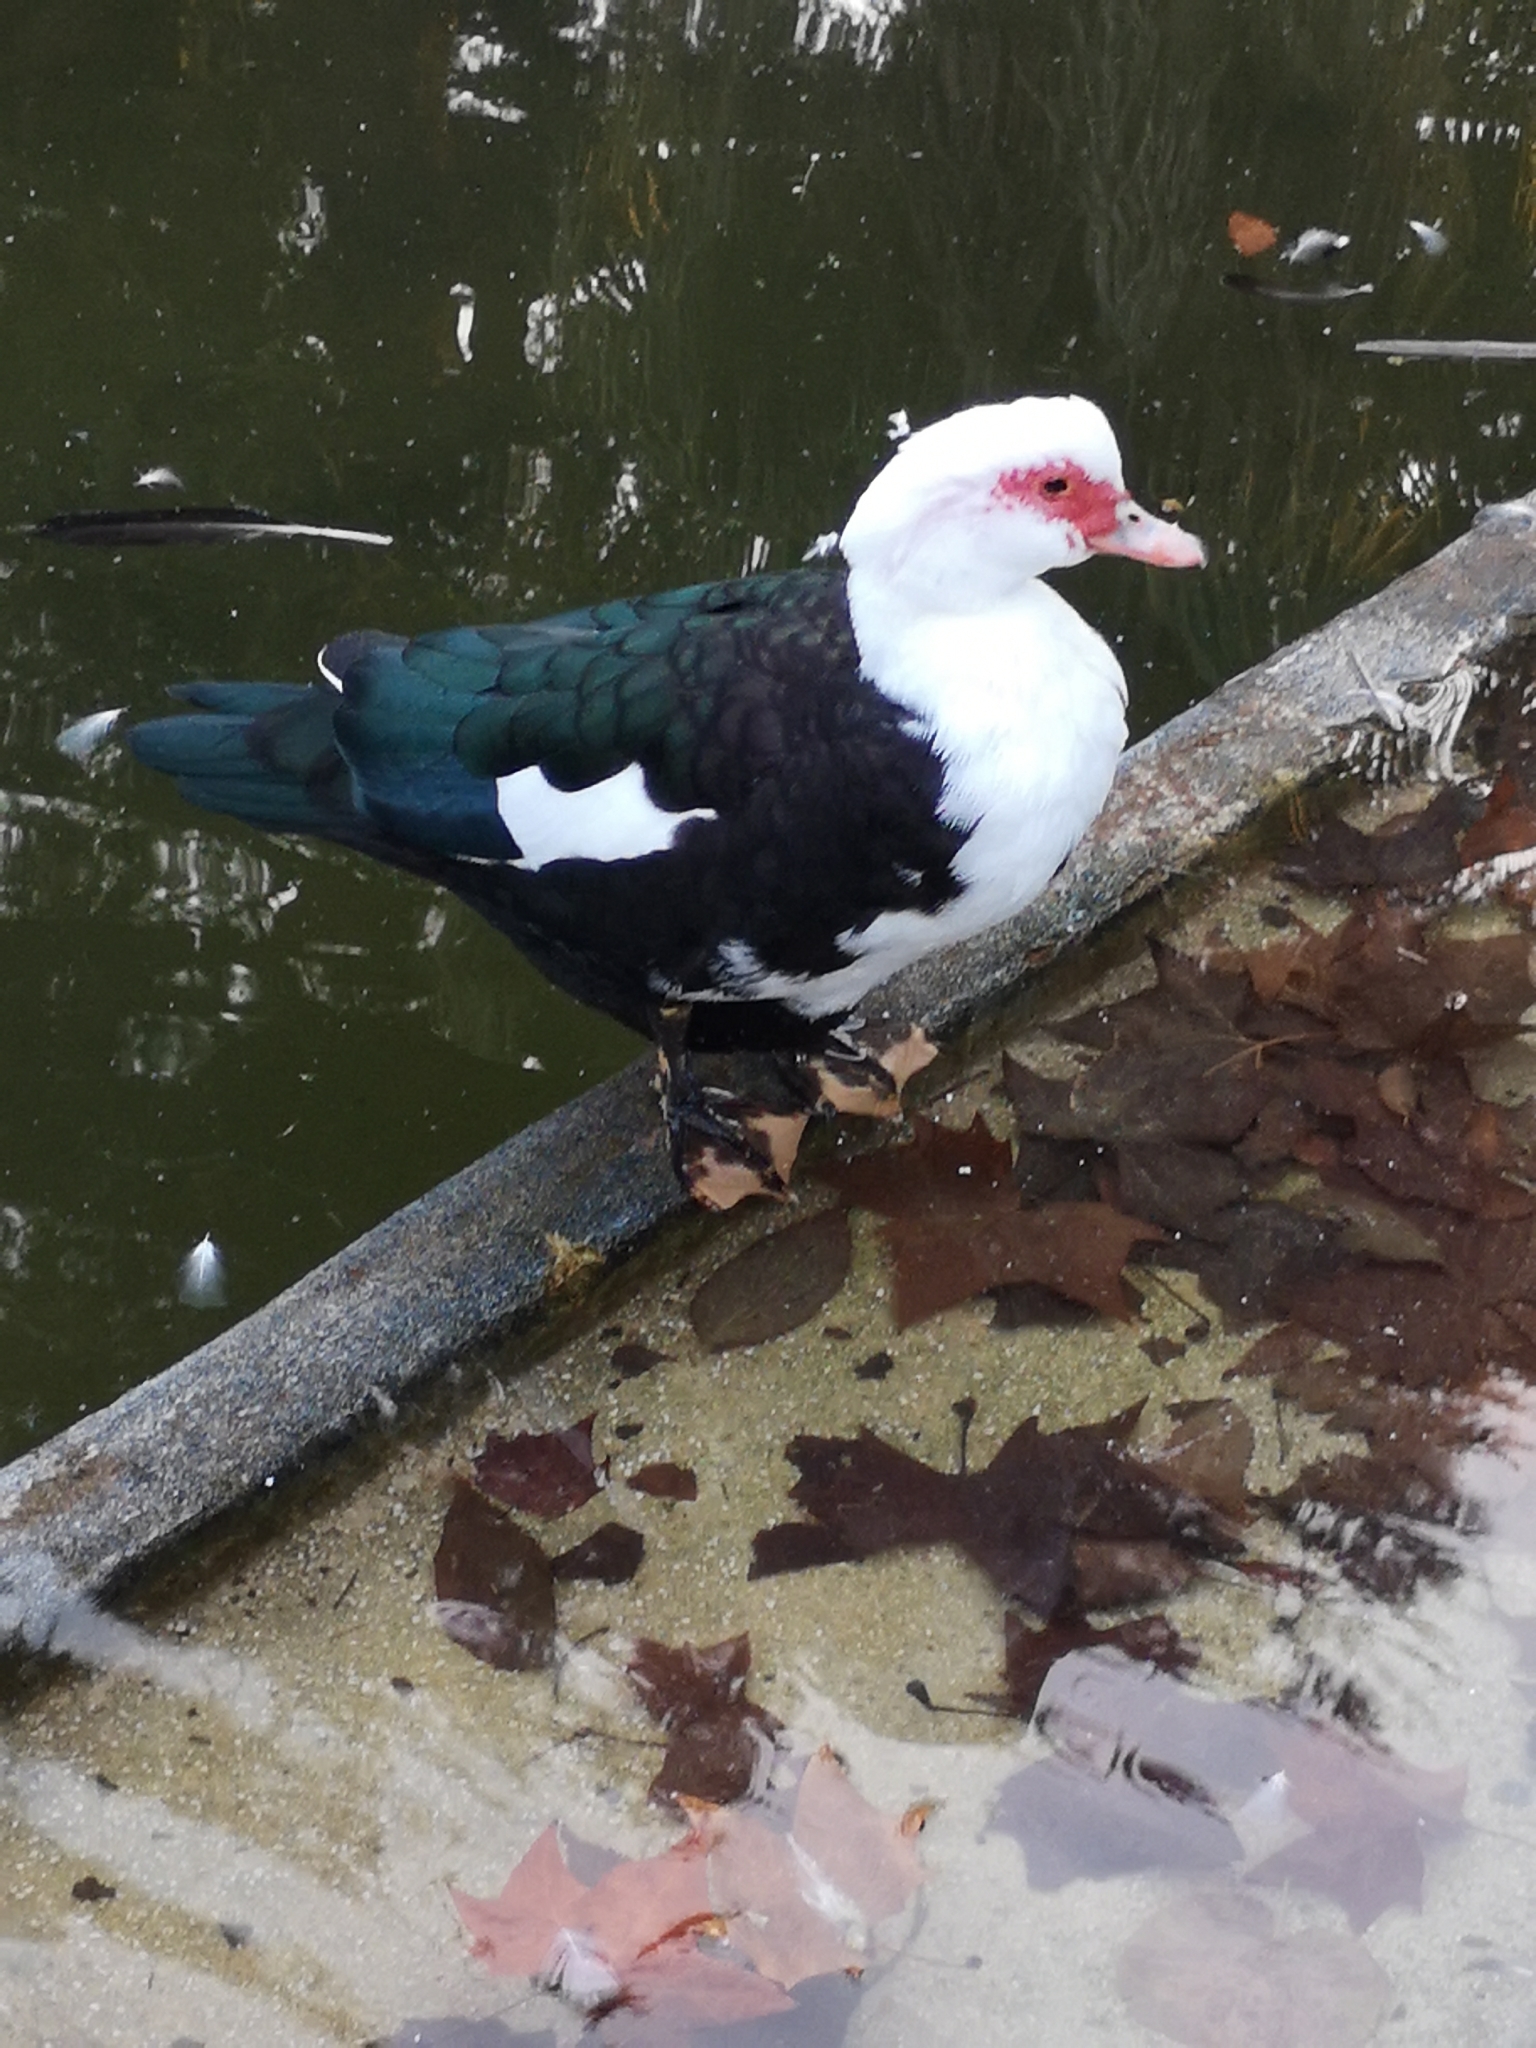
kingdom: Animalia
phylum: Chordata
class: Aves
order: Anseriformes
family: Anatidae
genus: Cairina
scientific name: Cairina moschata
